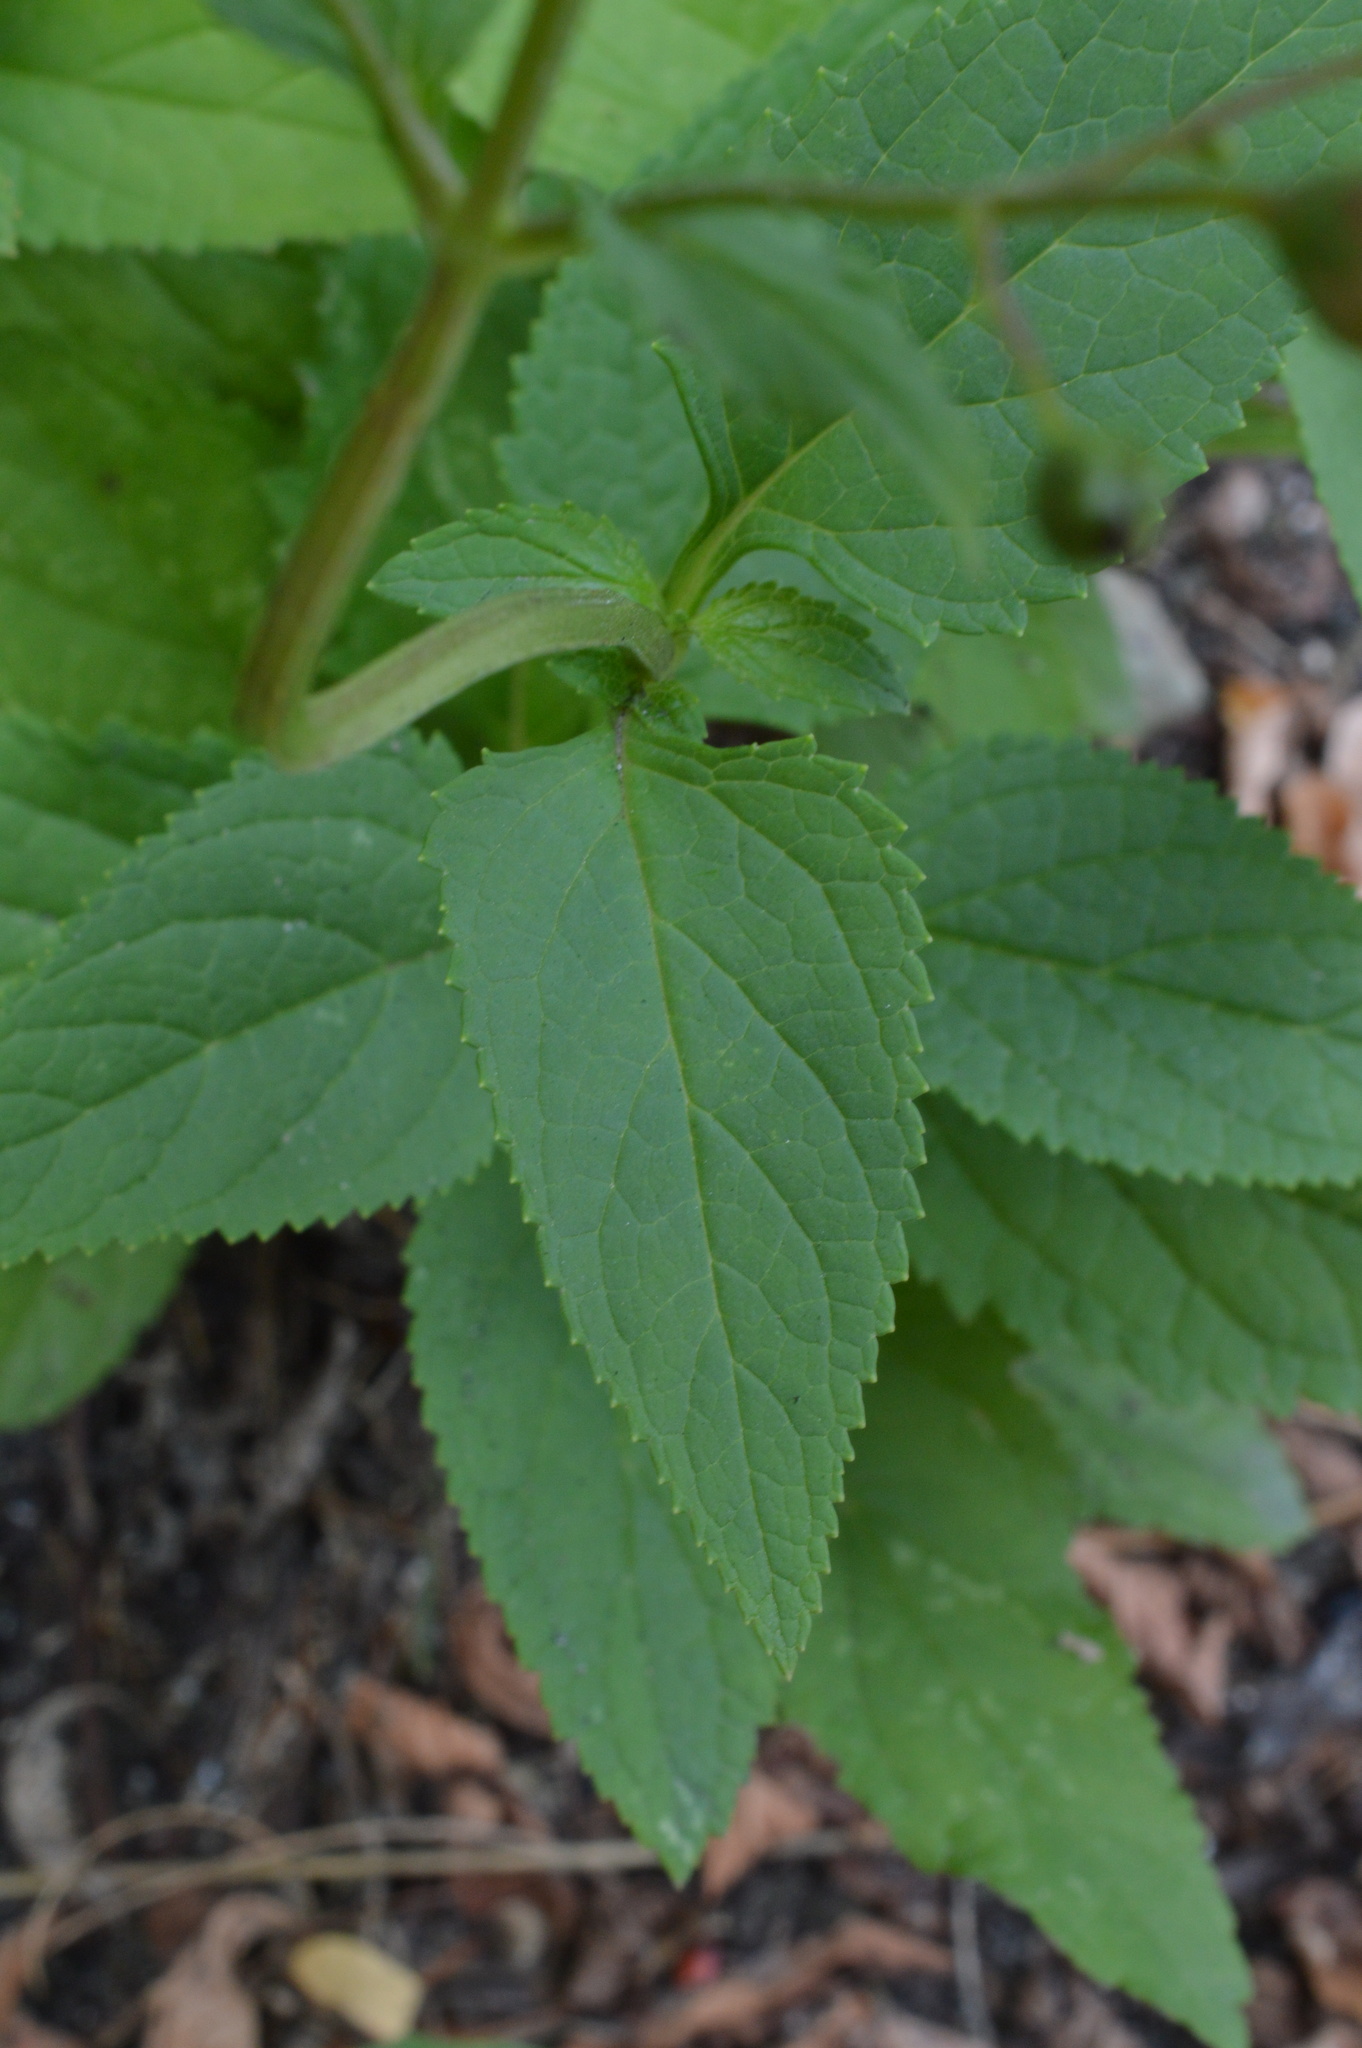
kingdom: Plantae
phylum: Tracheophyta
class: Magnoliopsida
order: Lamiales
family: Scrophulariaceae
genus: Scrophularia
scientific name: Scrophularia nodosa
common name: Common figwort
